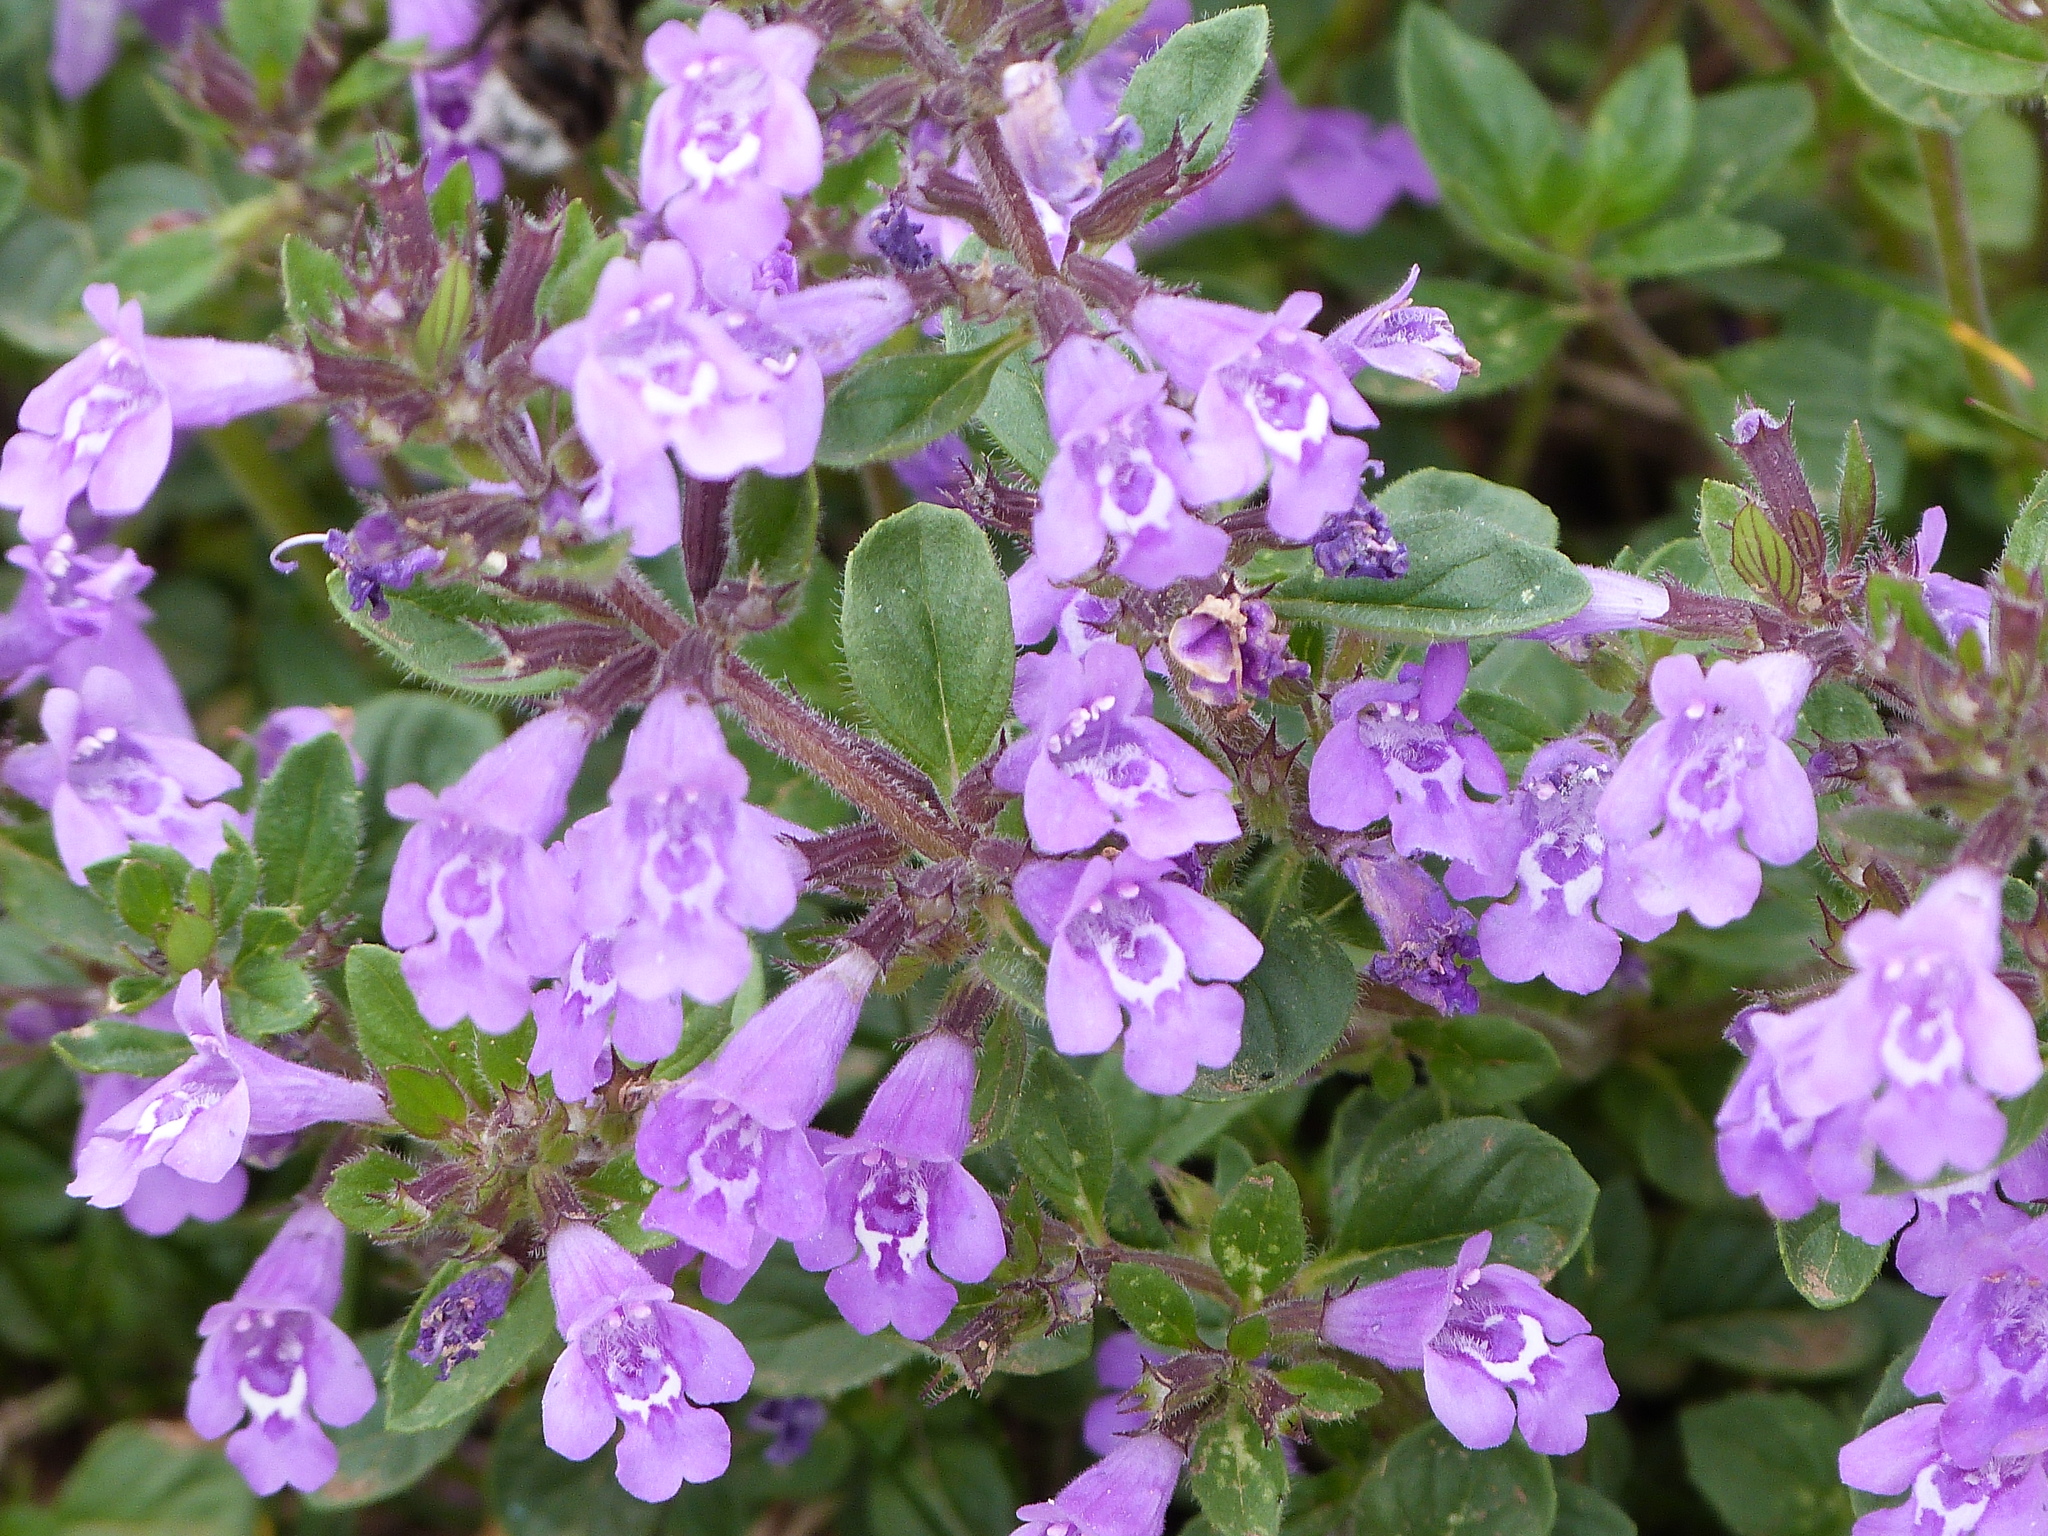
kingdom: Plantae
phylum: Tracheophyta
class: Magnoliopsida
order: Lamiales
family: Lamiaceae
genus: Clinopodium
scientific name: Clinopodium alpinum
